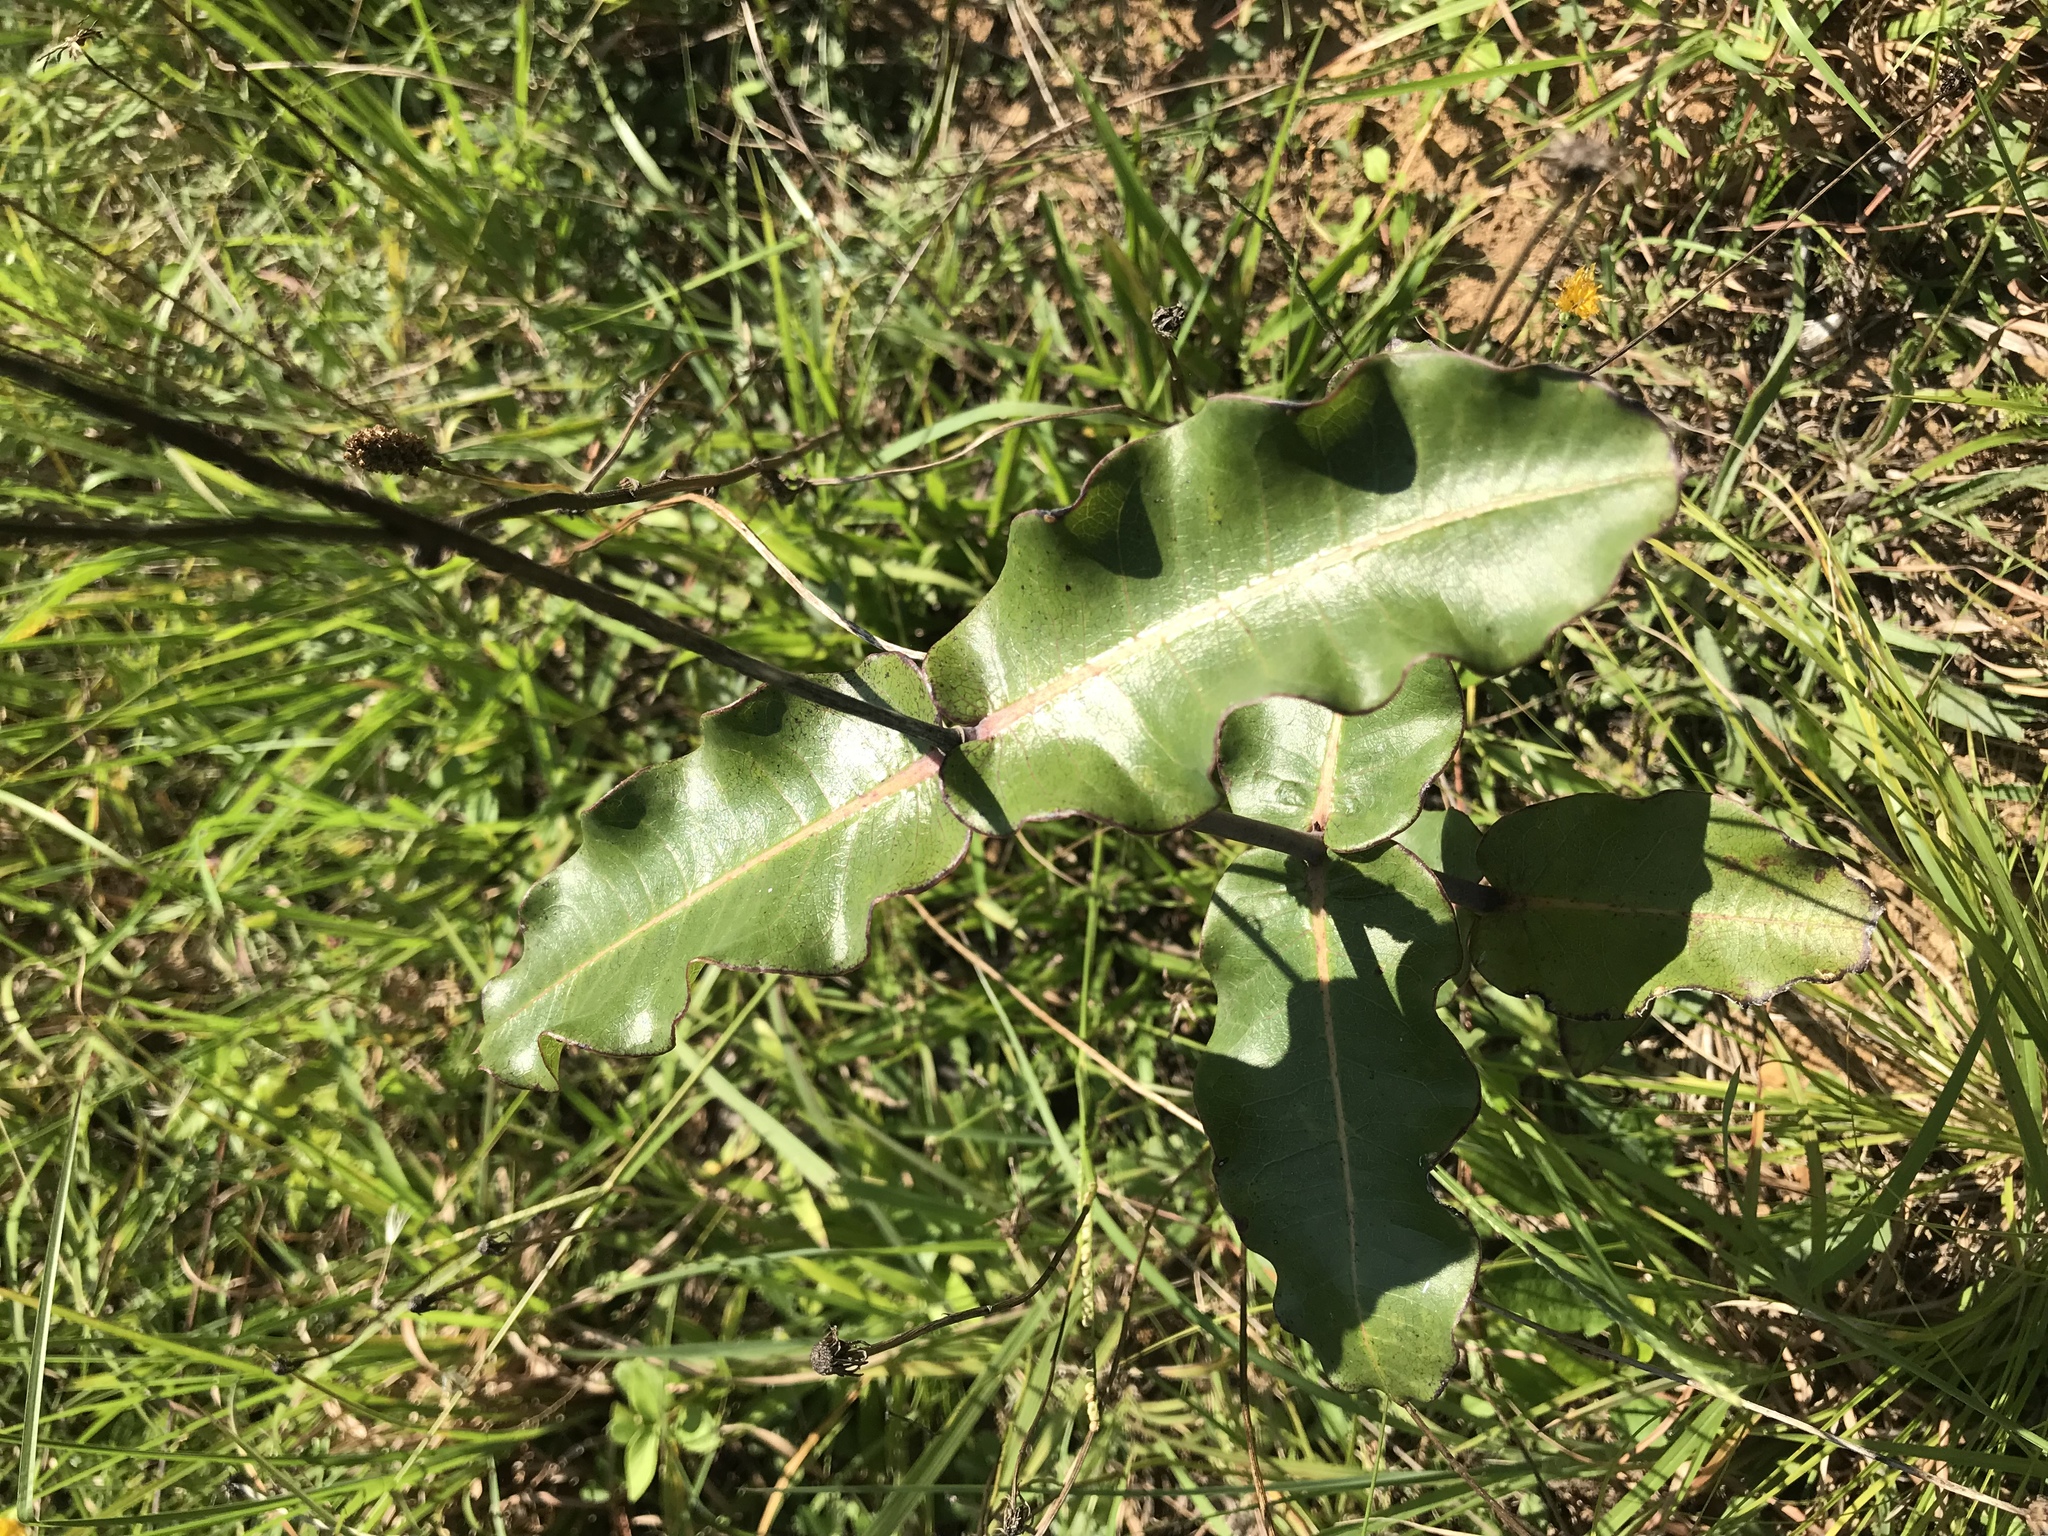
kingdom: Plantae
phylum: Tracheophyta
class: Magnoliopsida
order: Gentianales
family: Apocynaceae
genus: Asclepias
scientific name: Asclepias amplexicaulis
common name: Blunt-leaf milkweed
